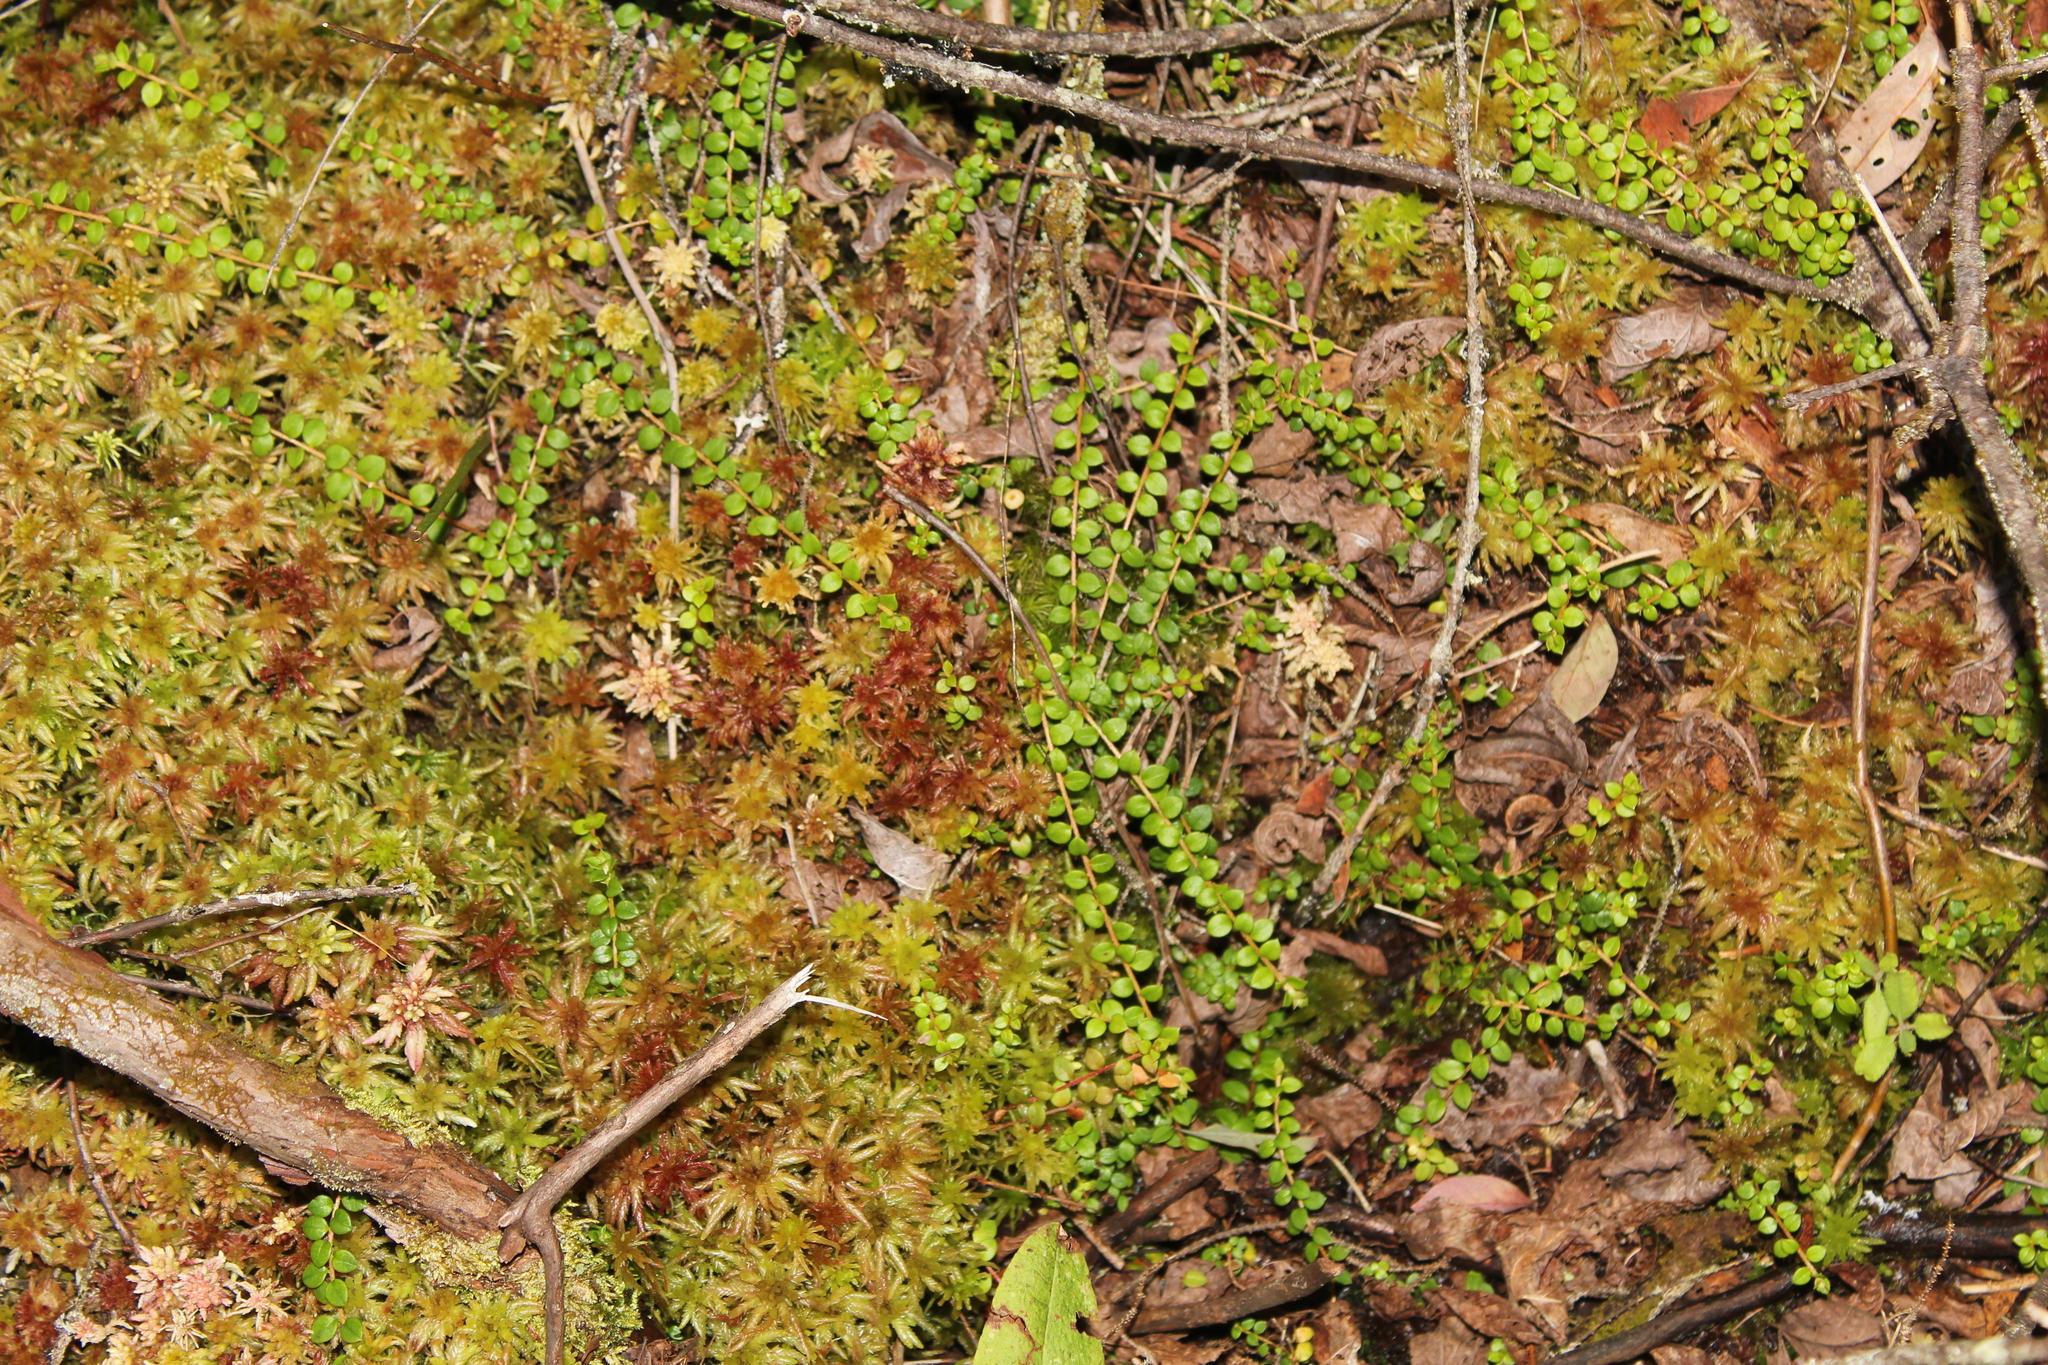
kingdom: Plantae
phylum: Tracheophyta
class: Magnoliopsida
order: Ericales
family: Ericaceae
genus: Gaultheria
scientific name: Gaultheria hispidula
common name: Cancer wintergreen
